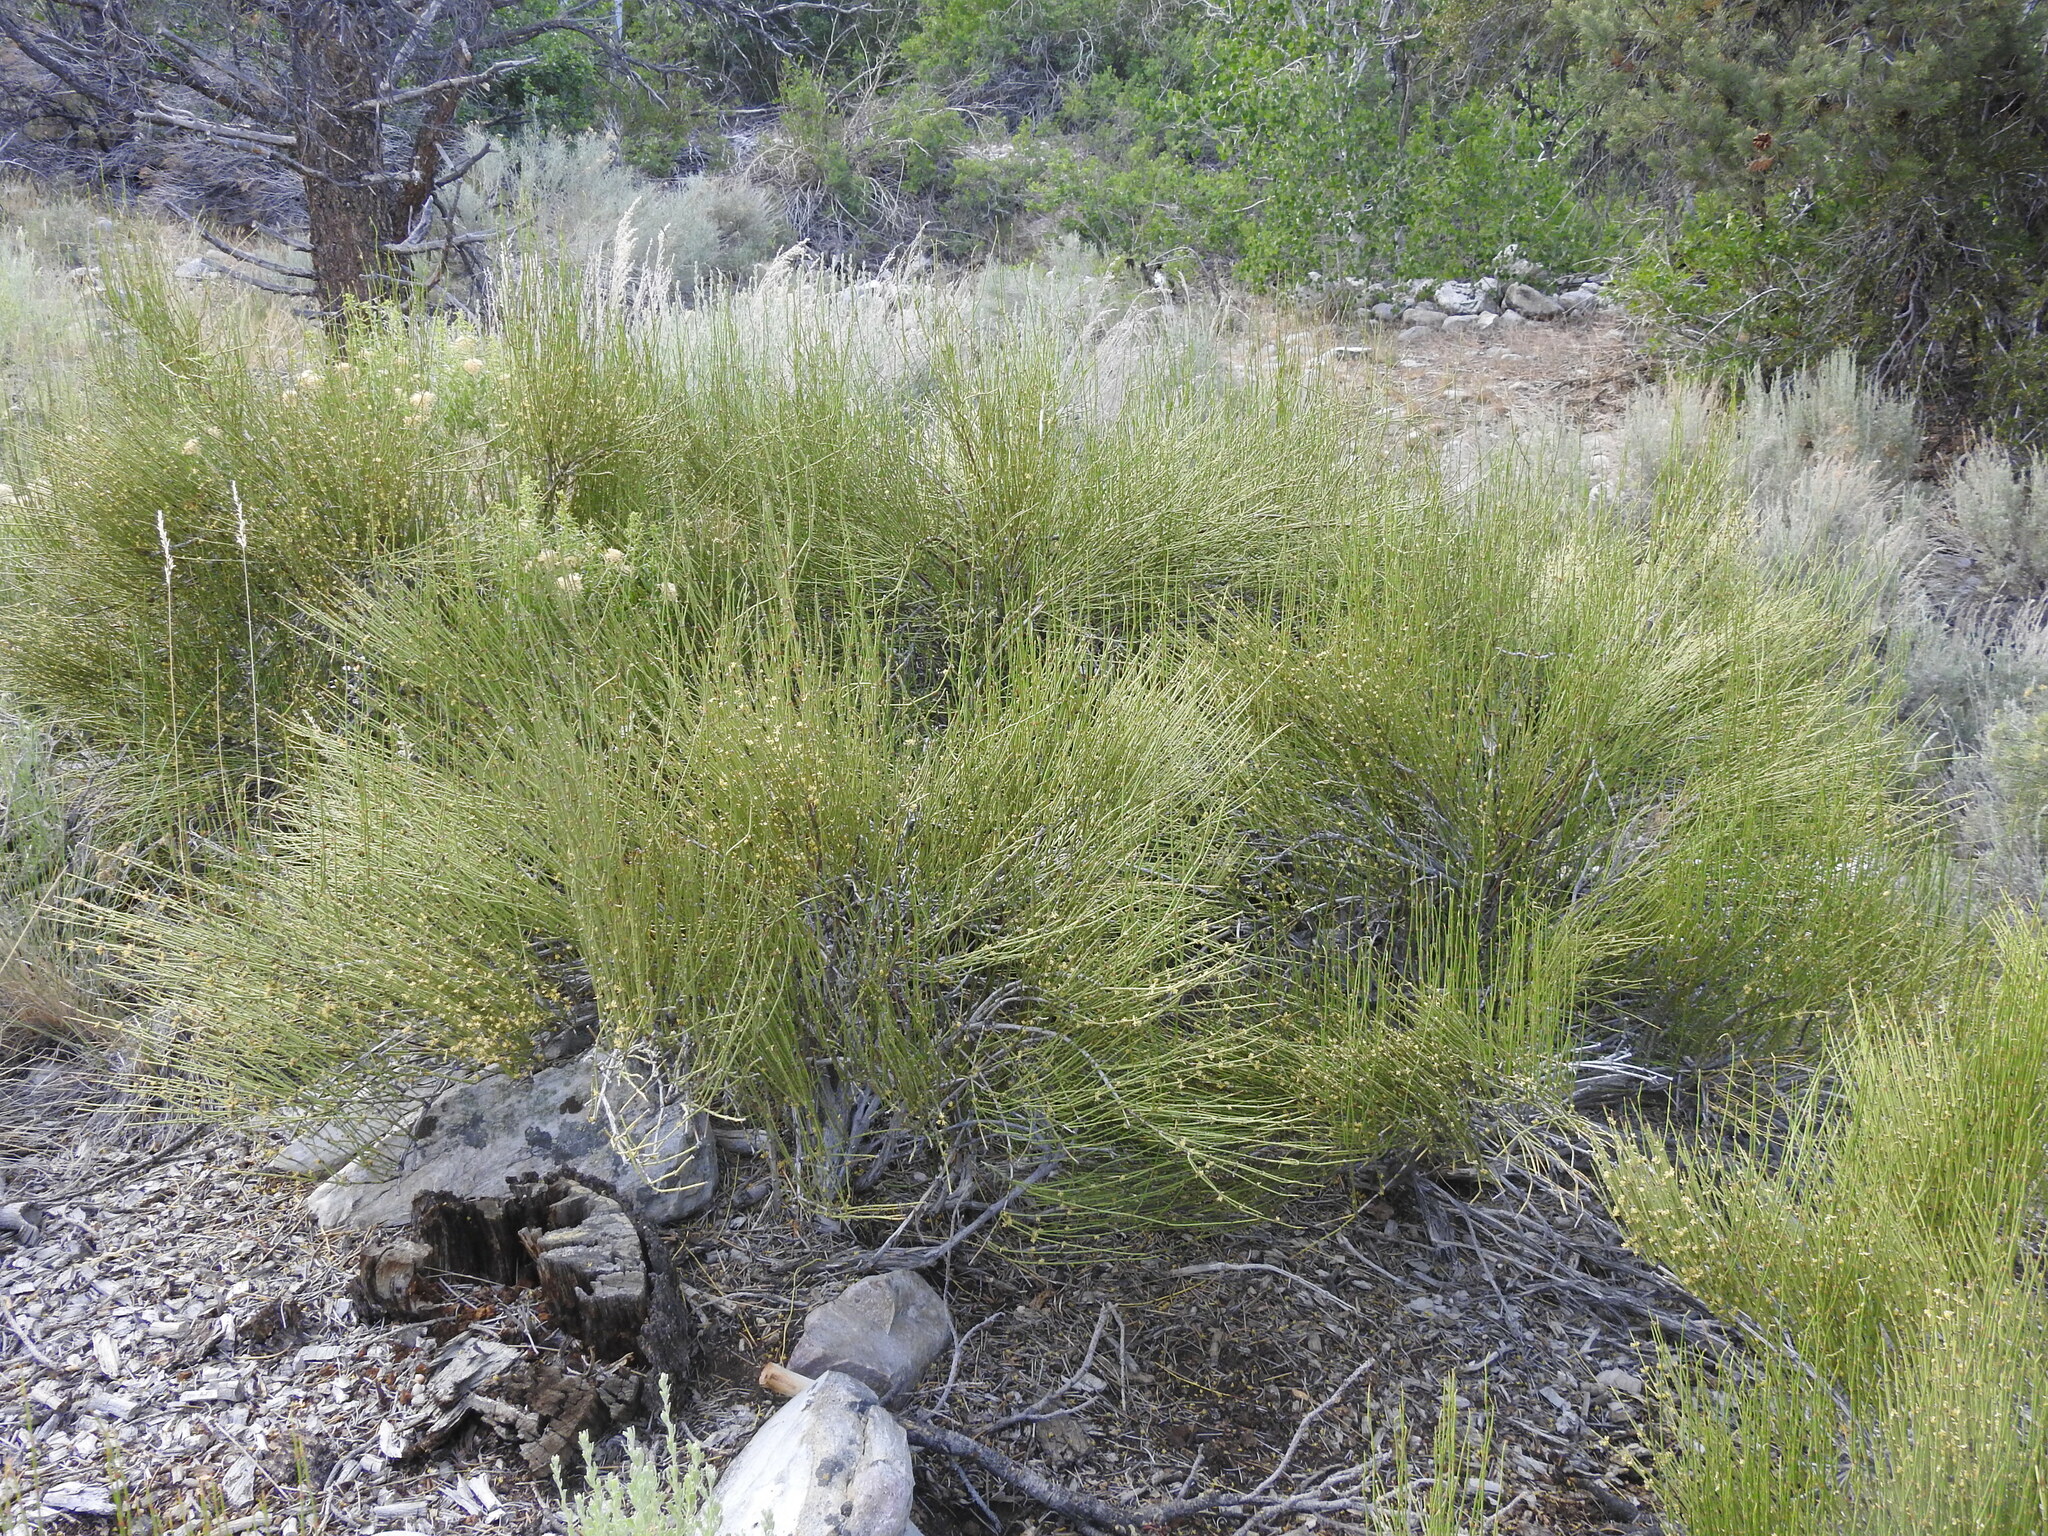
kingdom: Plantae
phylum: Tracheophyta
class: Gnetopsida
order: Ephedrales
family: Ephedraceae
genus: Ephedra
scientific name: Ephedra viridis
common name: Green ephedra
